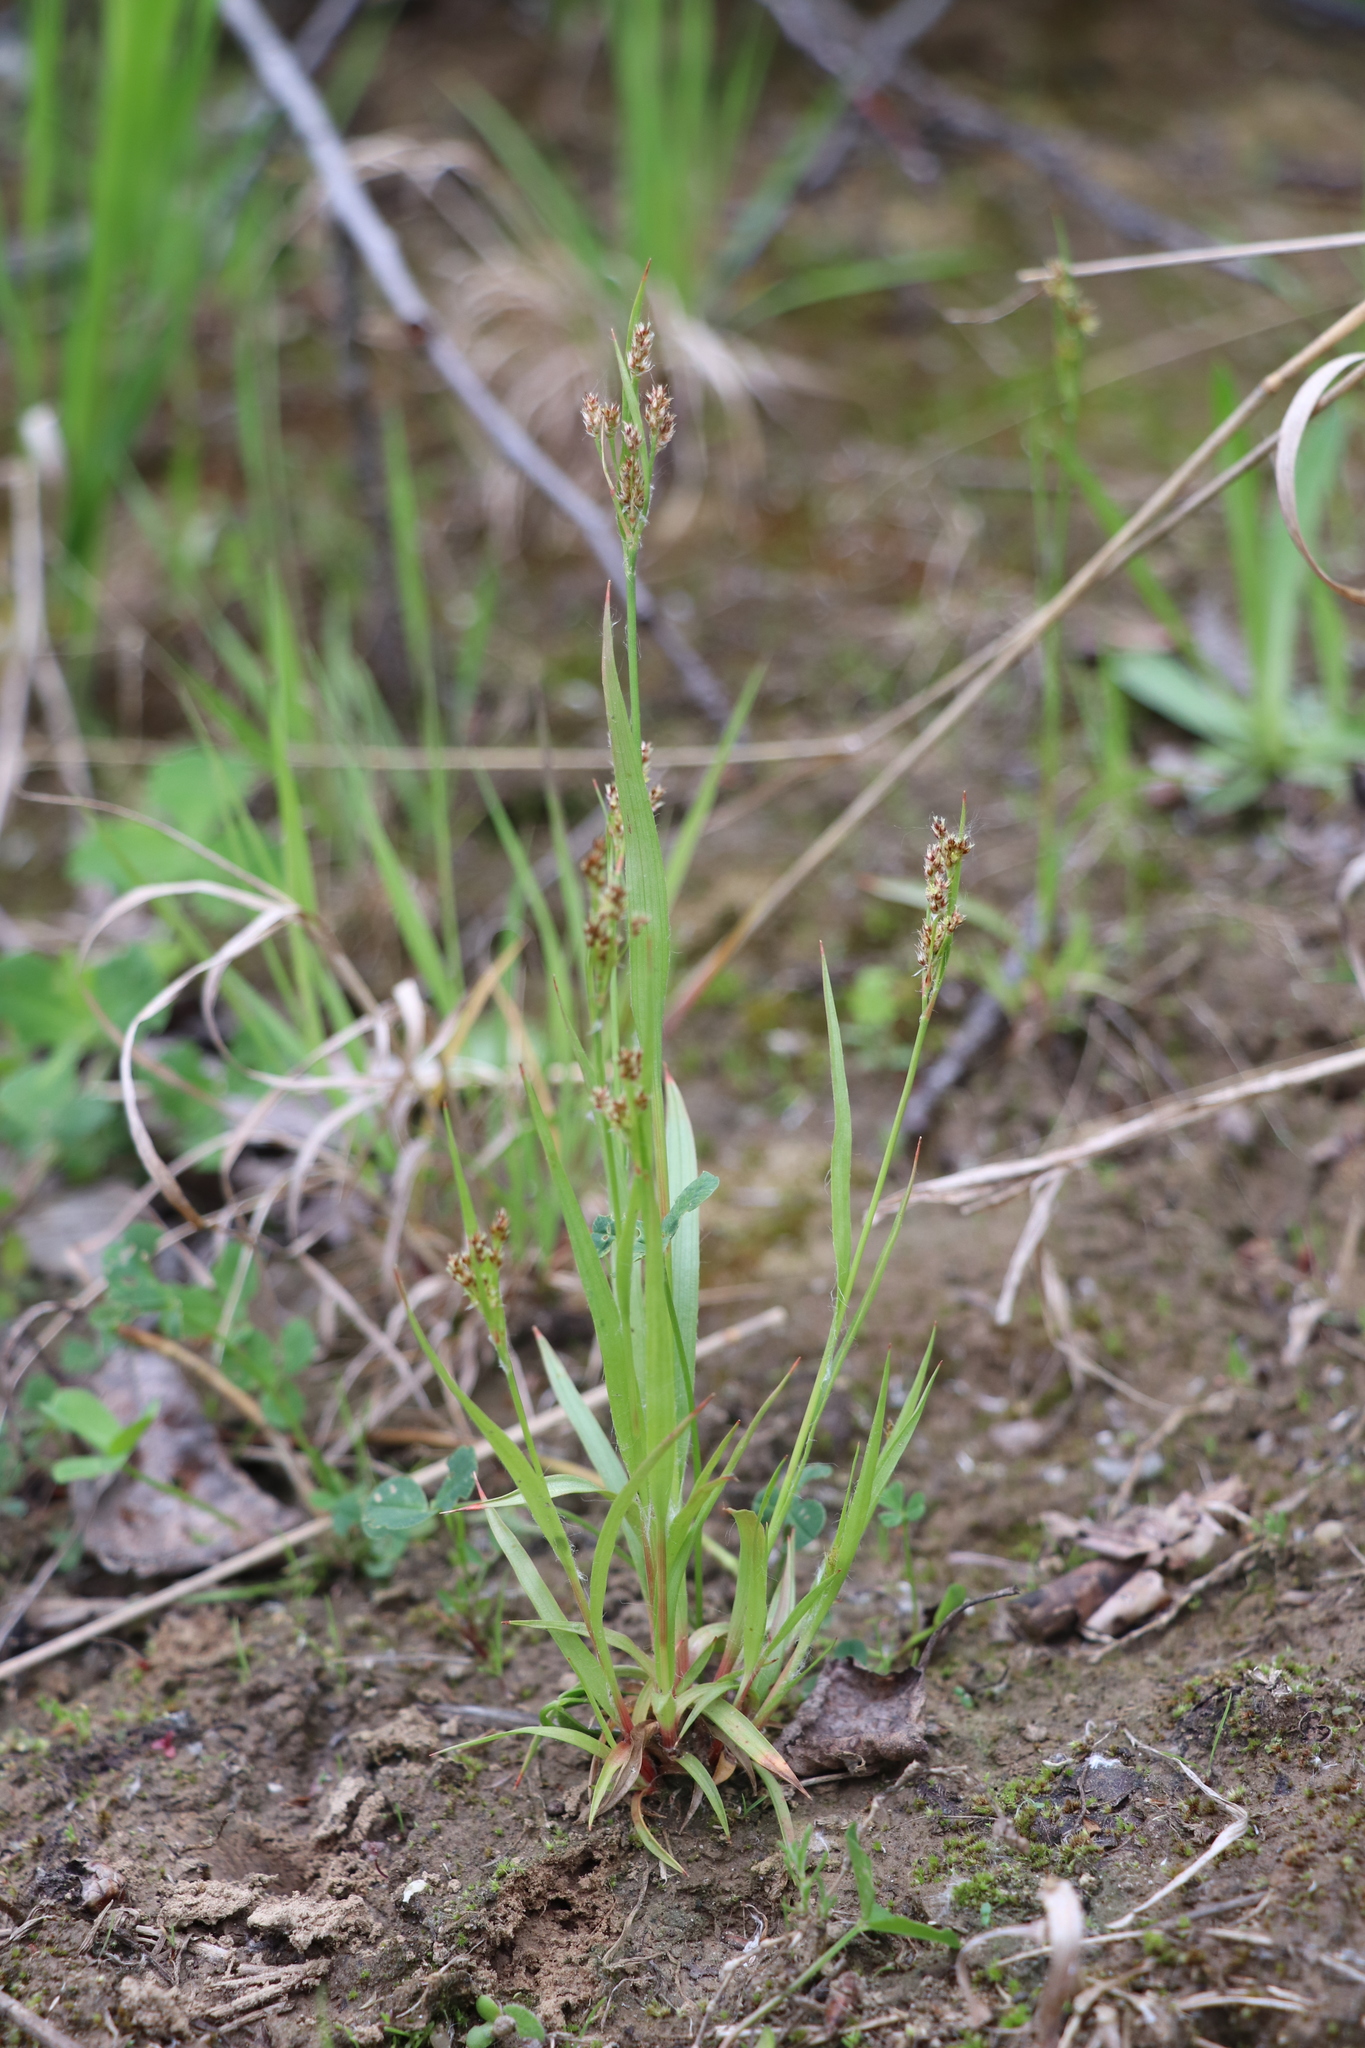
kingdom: Plantae
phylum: Tracheophyta
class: Liliopsida
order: Poales
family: Juncaceae
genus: Luzula
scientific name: Luzula pallescens
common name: Fen wood-rush
